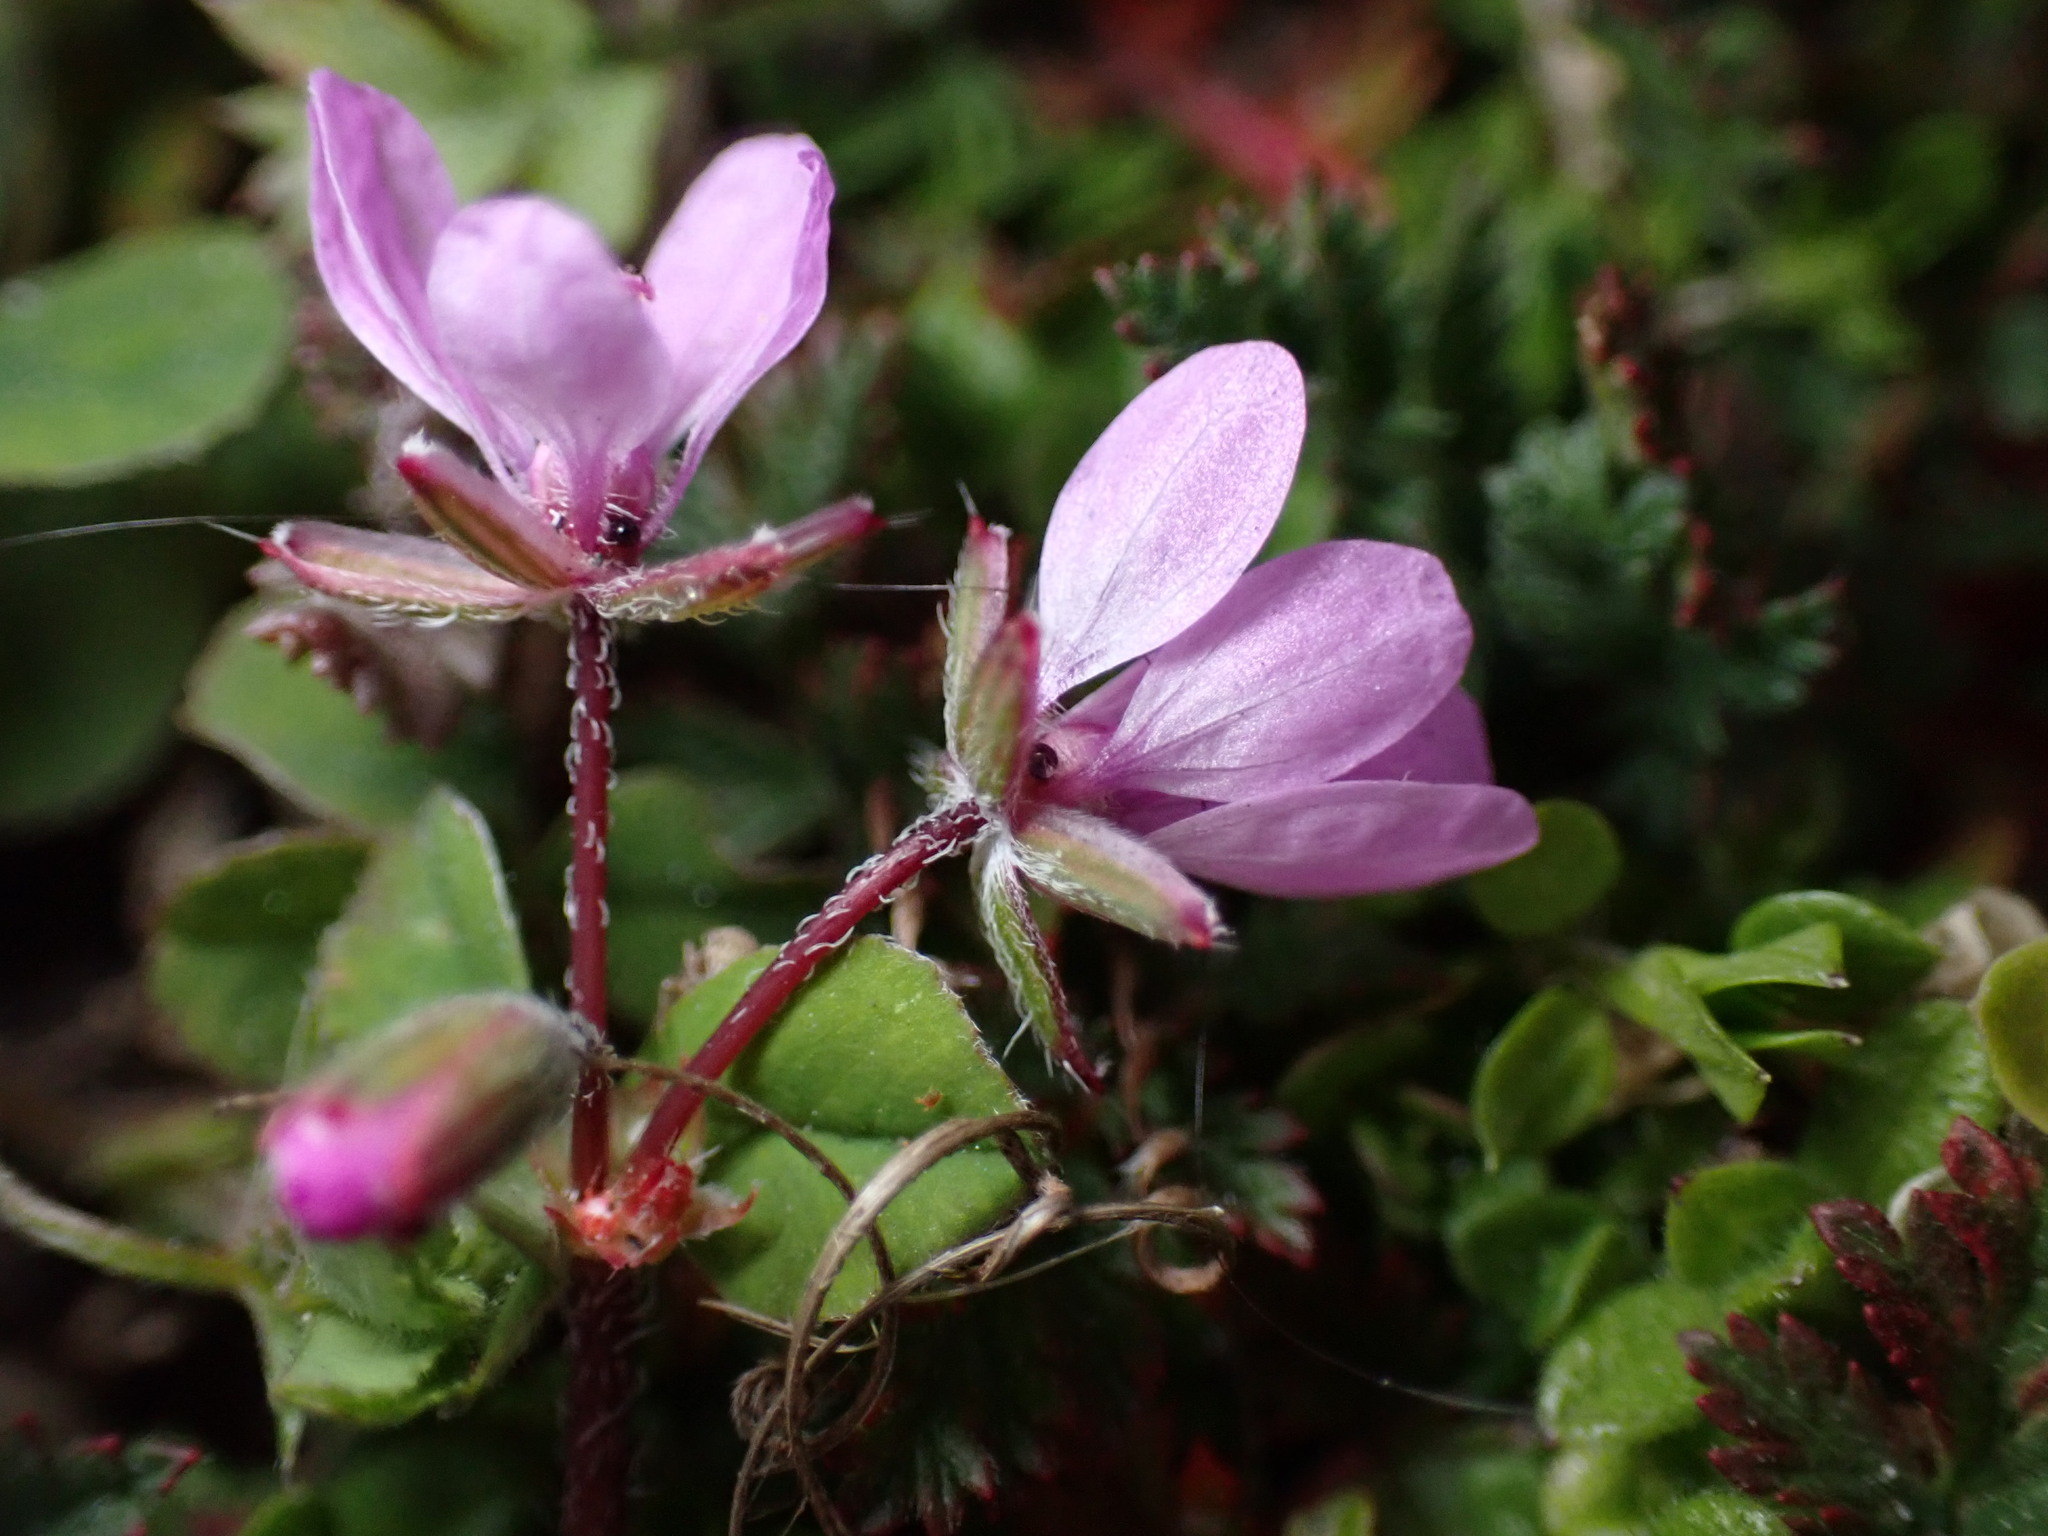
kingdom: Plantae
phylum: Tracheophyta
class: Magnoliopsida
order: Geraniales
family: Geraniaceae
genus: Erodium
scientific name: Erodium cicutarium
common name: Common stork's-bill
